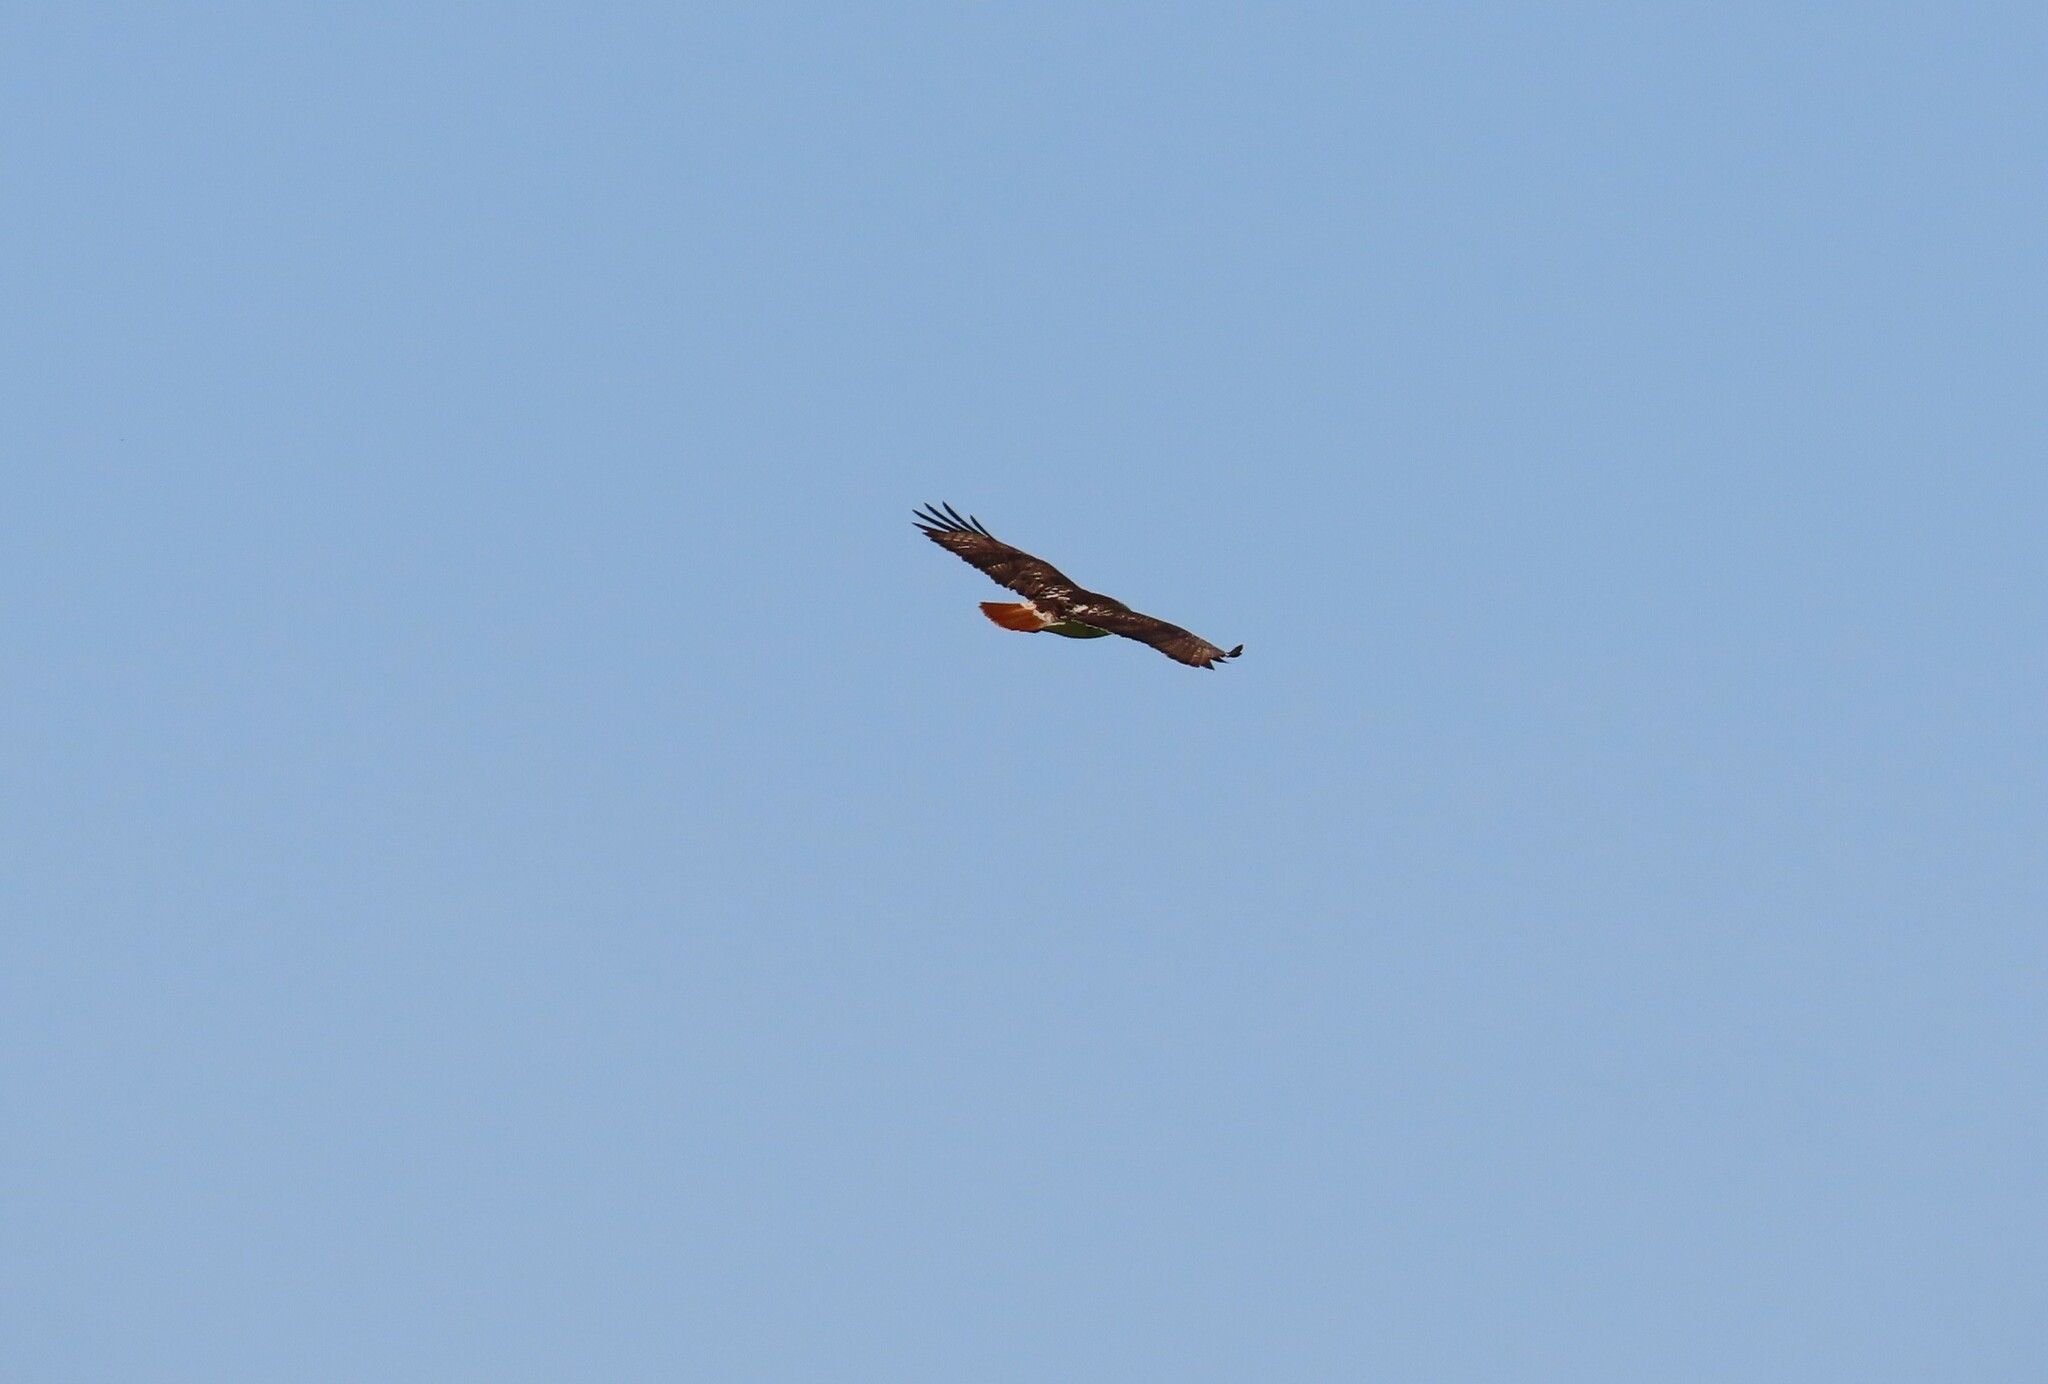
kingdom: Animalia
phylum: Chordata
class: Aves
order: Accipitriformes
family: Accipitridae
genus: Buteo
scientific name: Buteo jamaicensis
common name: Red-tailed hawk
